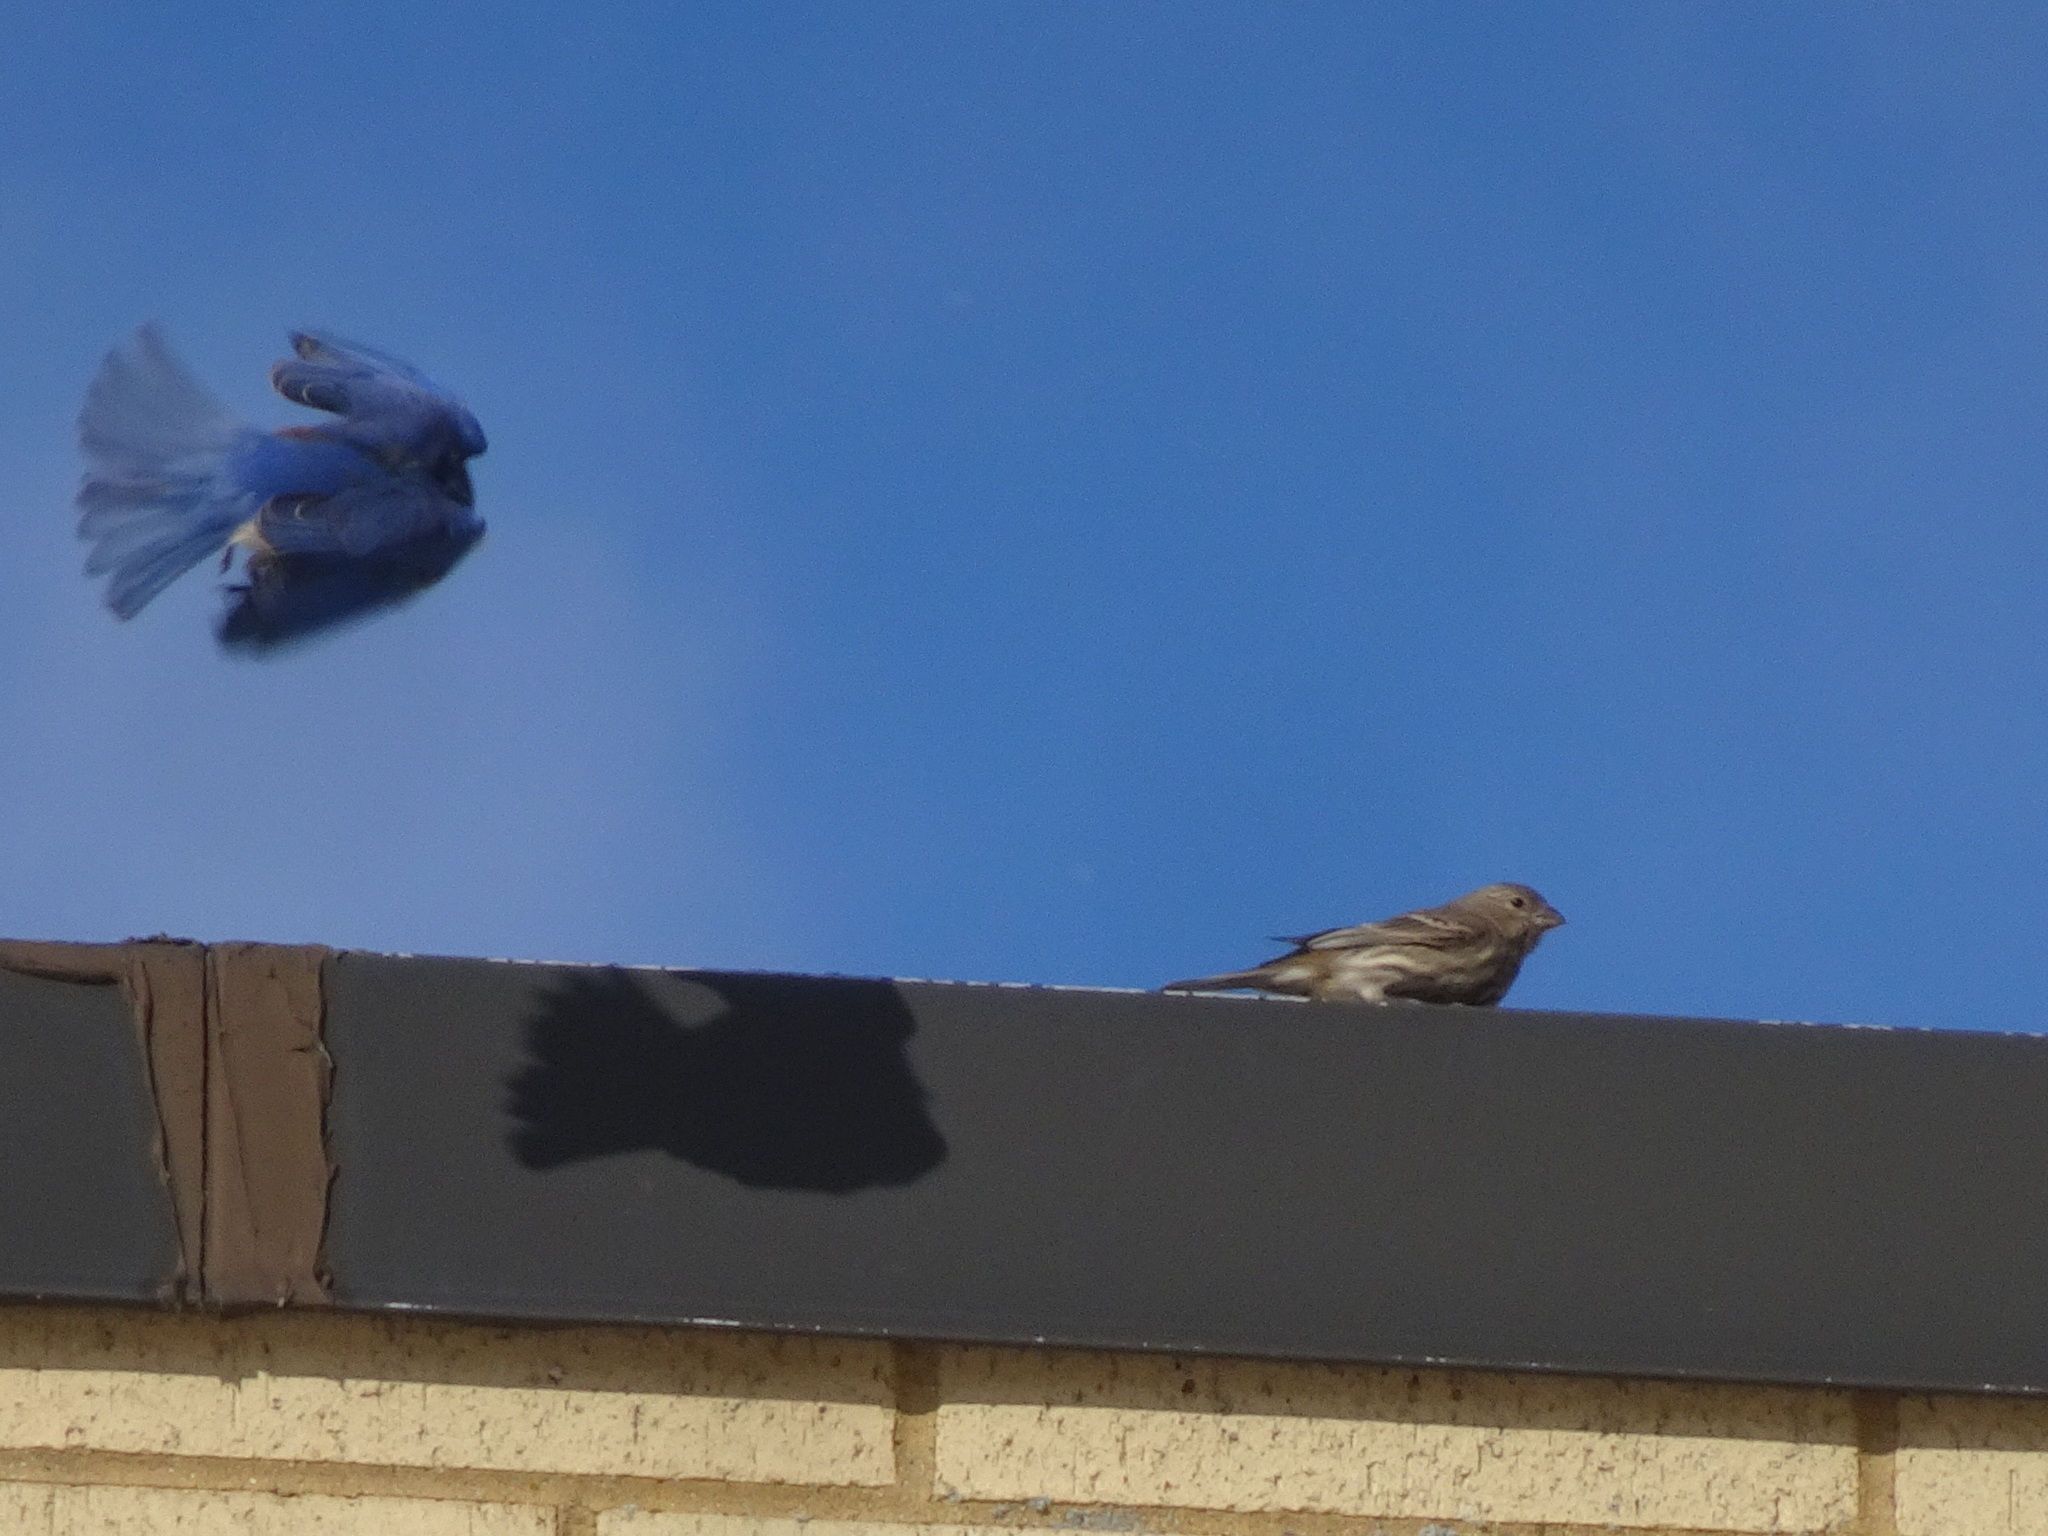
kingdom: Animalia
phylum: Chordata
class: Aves
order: Passeriformes
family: Turdidae
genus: Sialia
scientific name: Sialia sialis
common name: Eastern bluebird
